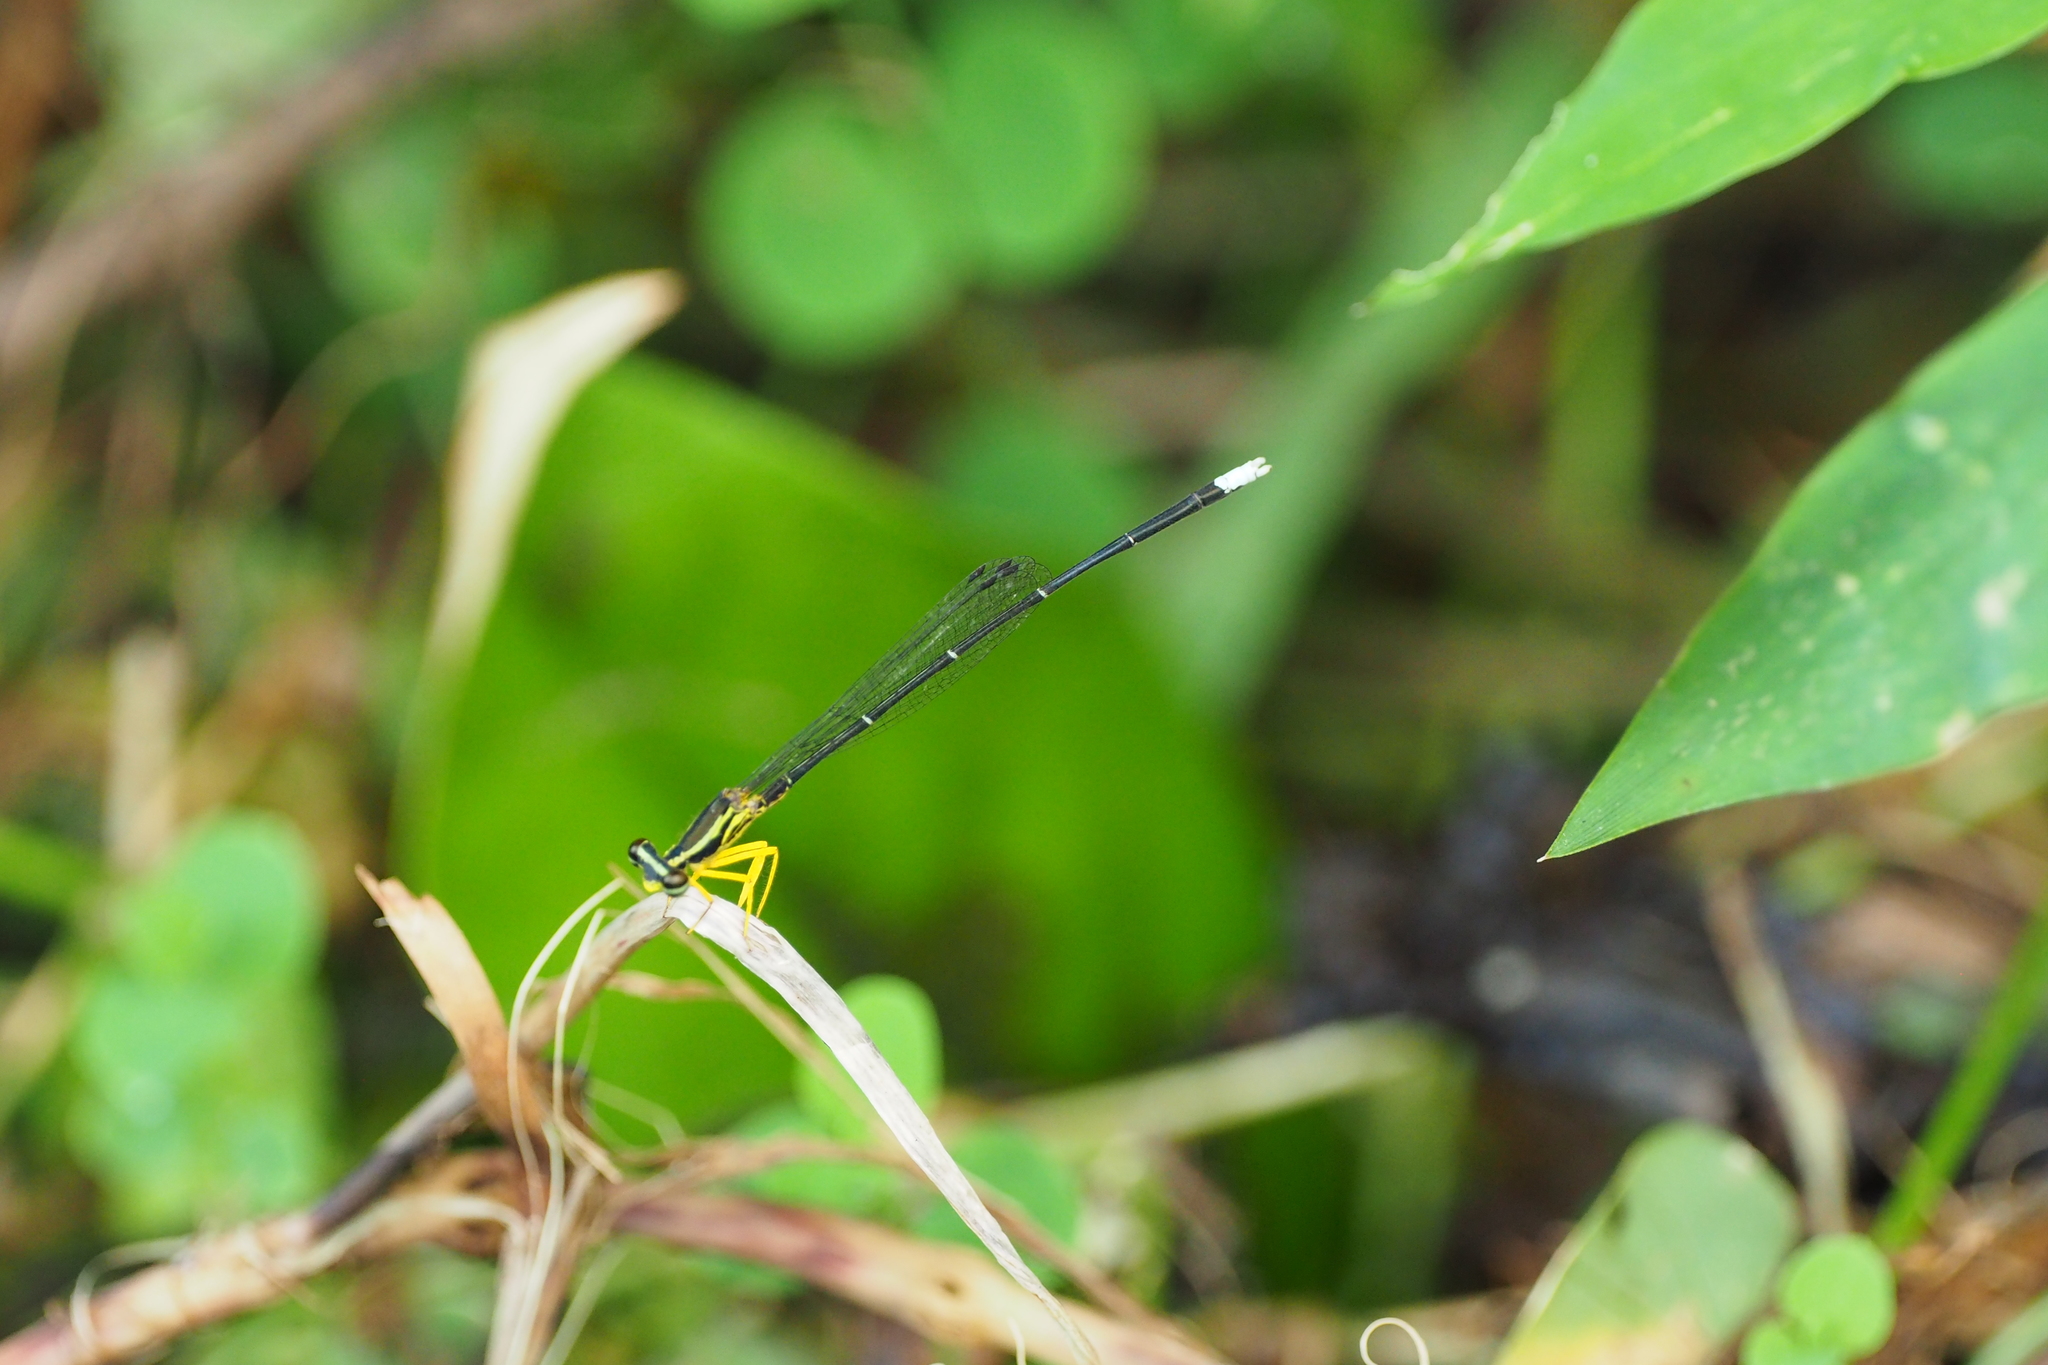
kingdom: Animalia
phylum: Arthropoda
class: Insecta
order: Odonata
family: Platycnemididae
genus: Copera
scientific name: Copera marginipes
